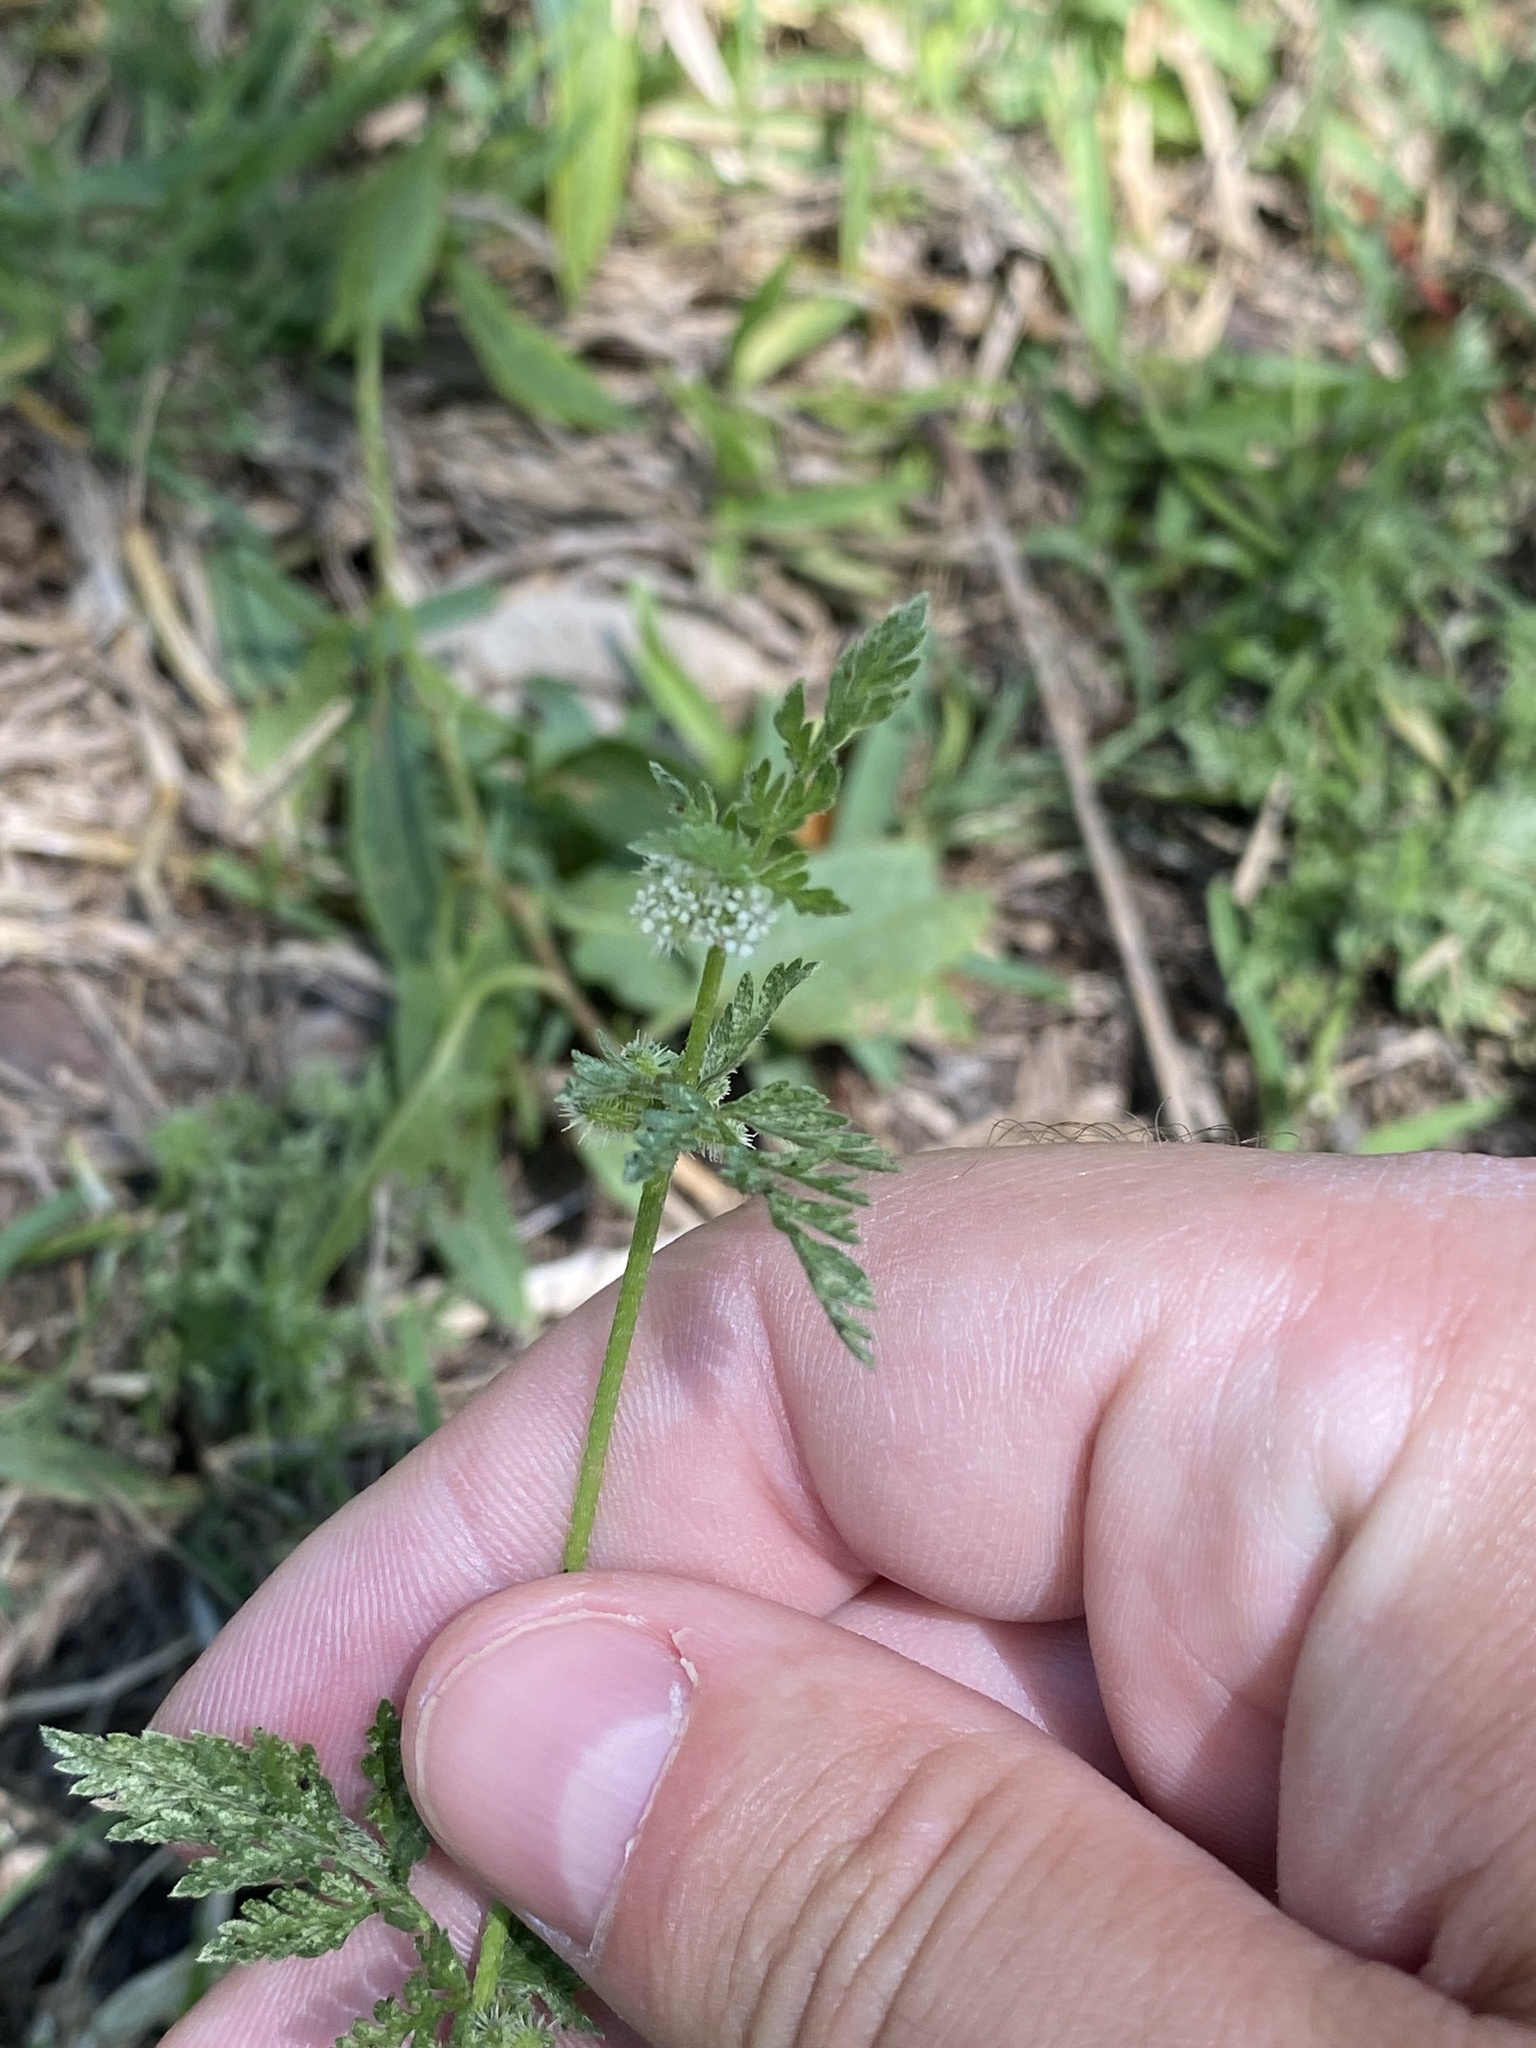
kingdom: Plantae
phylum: Tracheophyta
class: Magnoliopsida
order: Apiales
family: Apiaceae
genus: Torilis
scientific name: Torilis nodosa
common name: Knotted hedge-parsley
